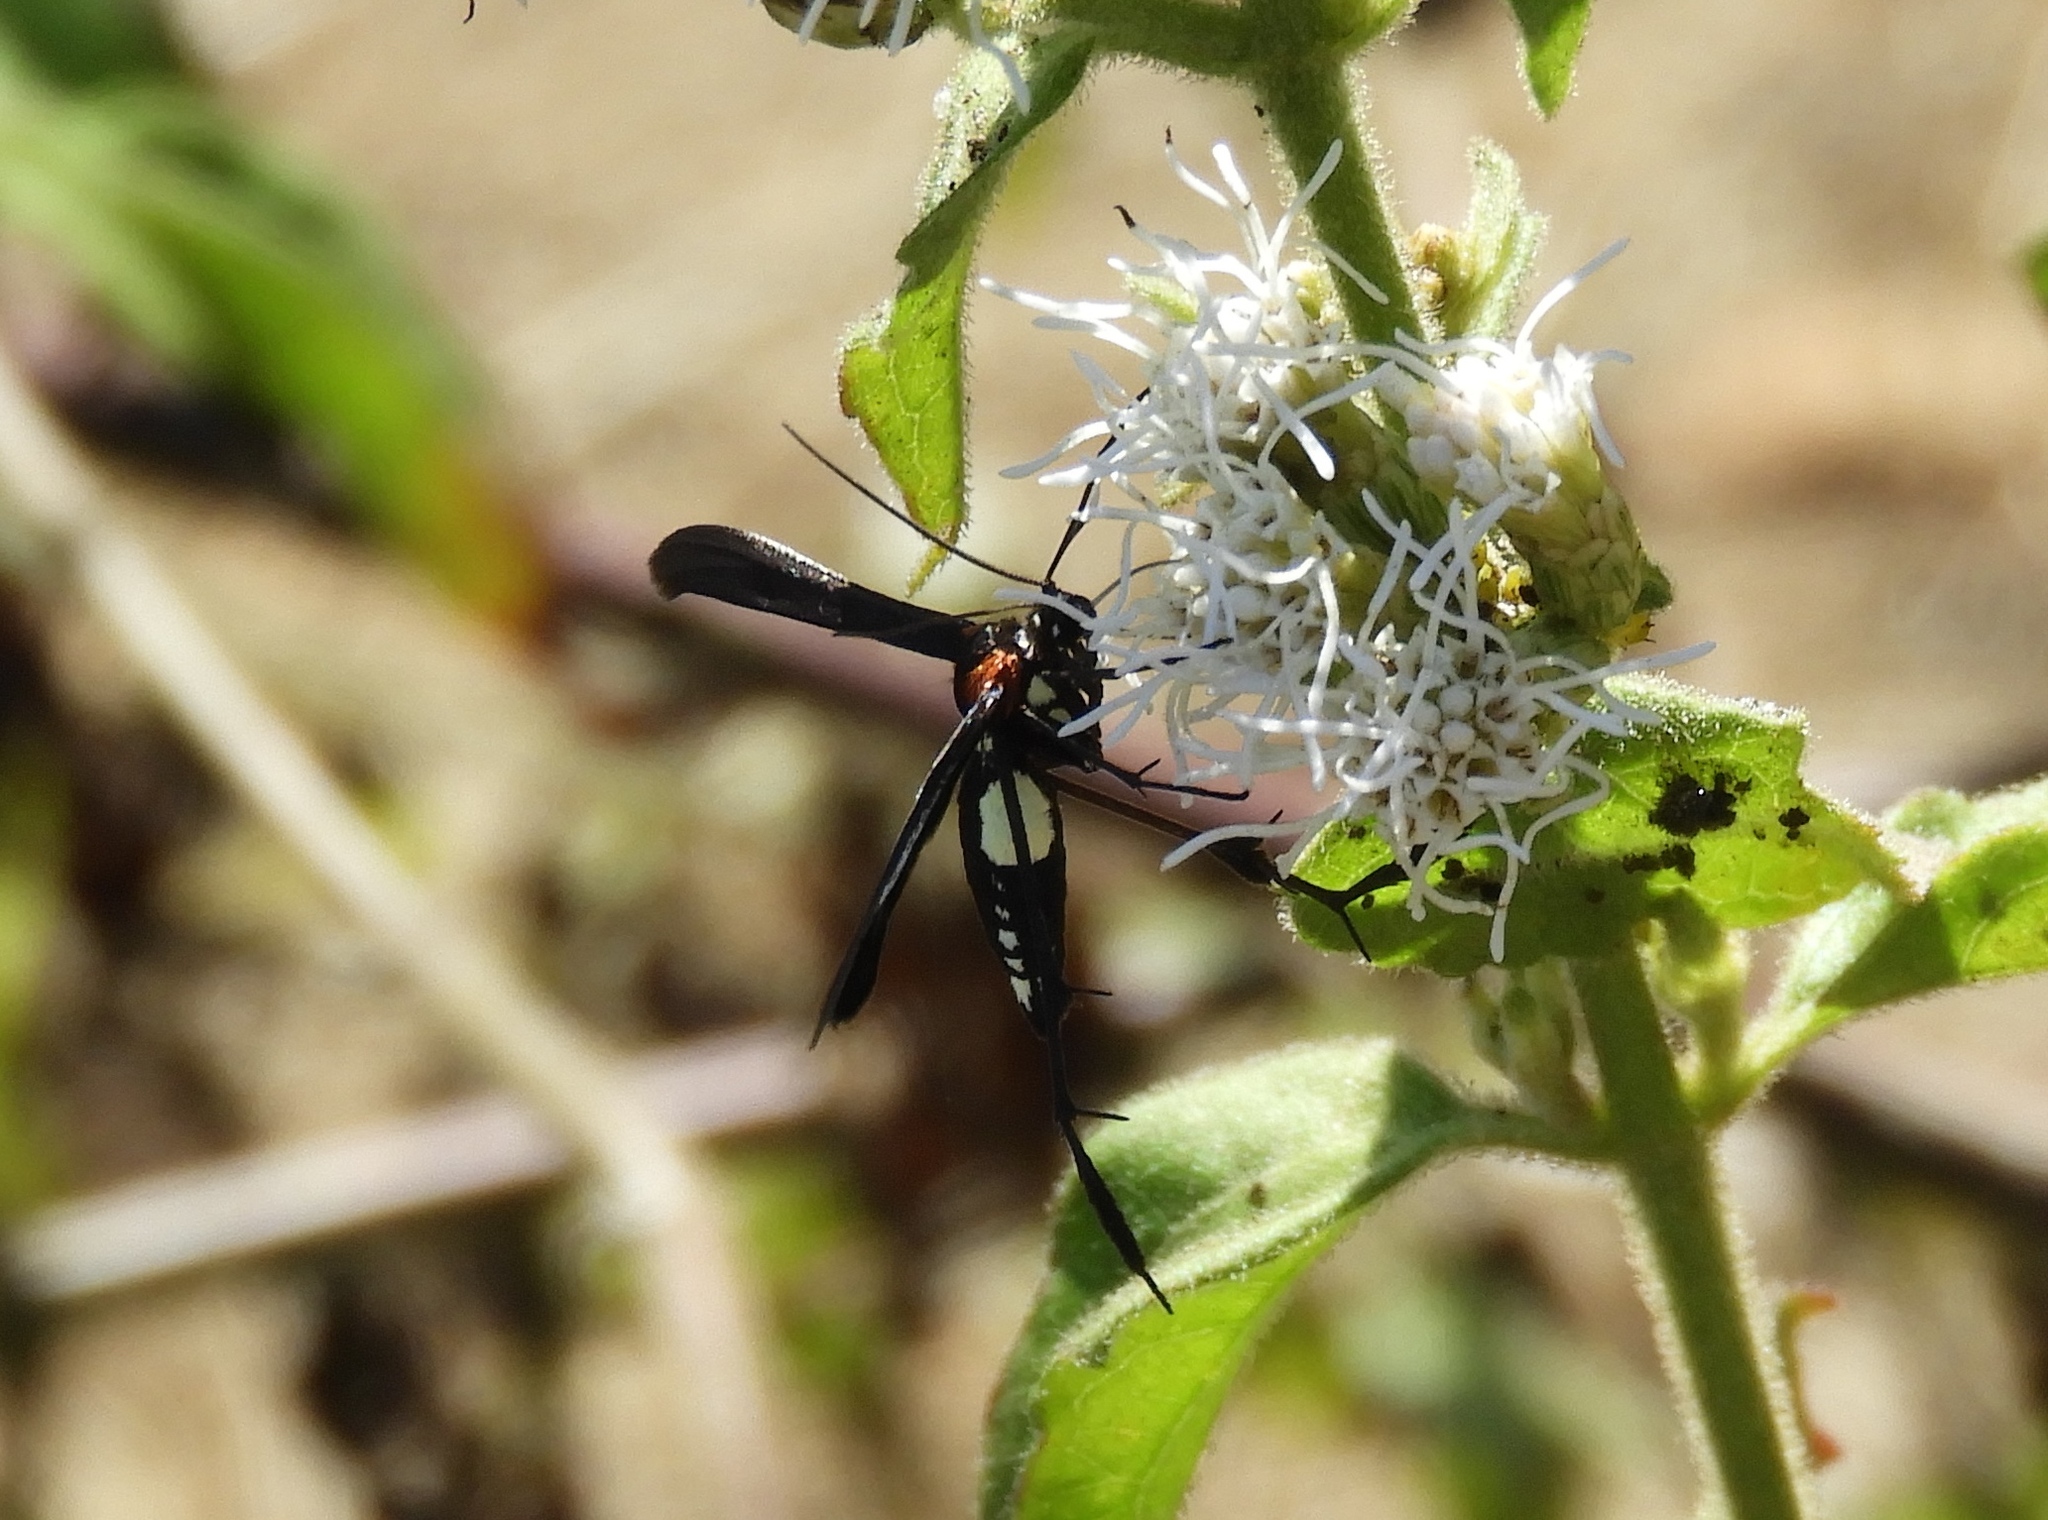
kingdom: Animalia
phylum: Arthropoda
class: Insecta
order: Lepidoptera
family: Pterophoridae
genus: Hellinsia
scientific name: Hellinsia chamelai
